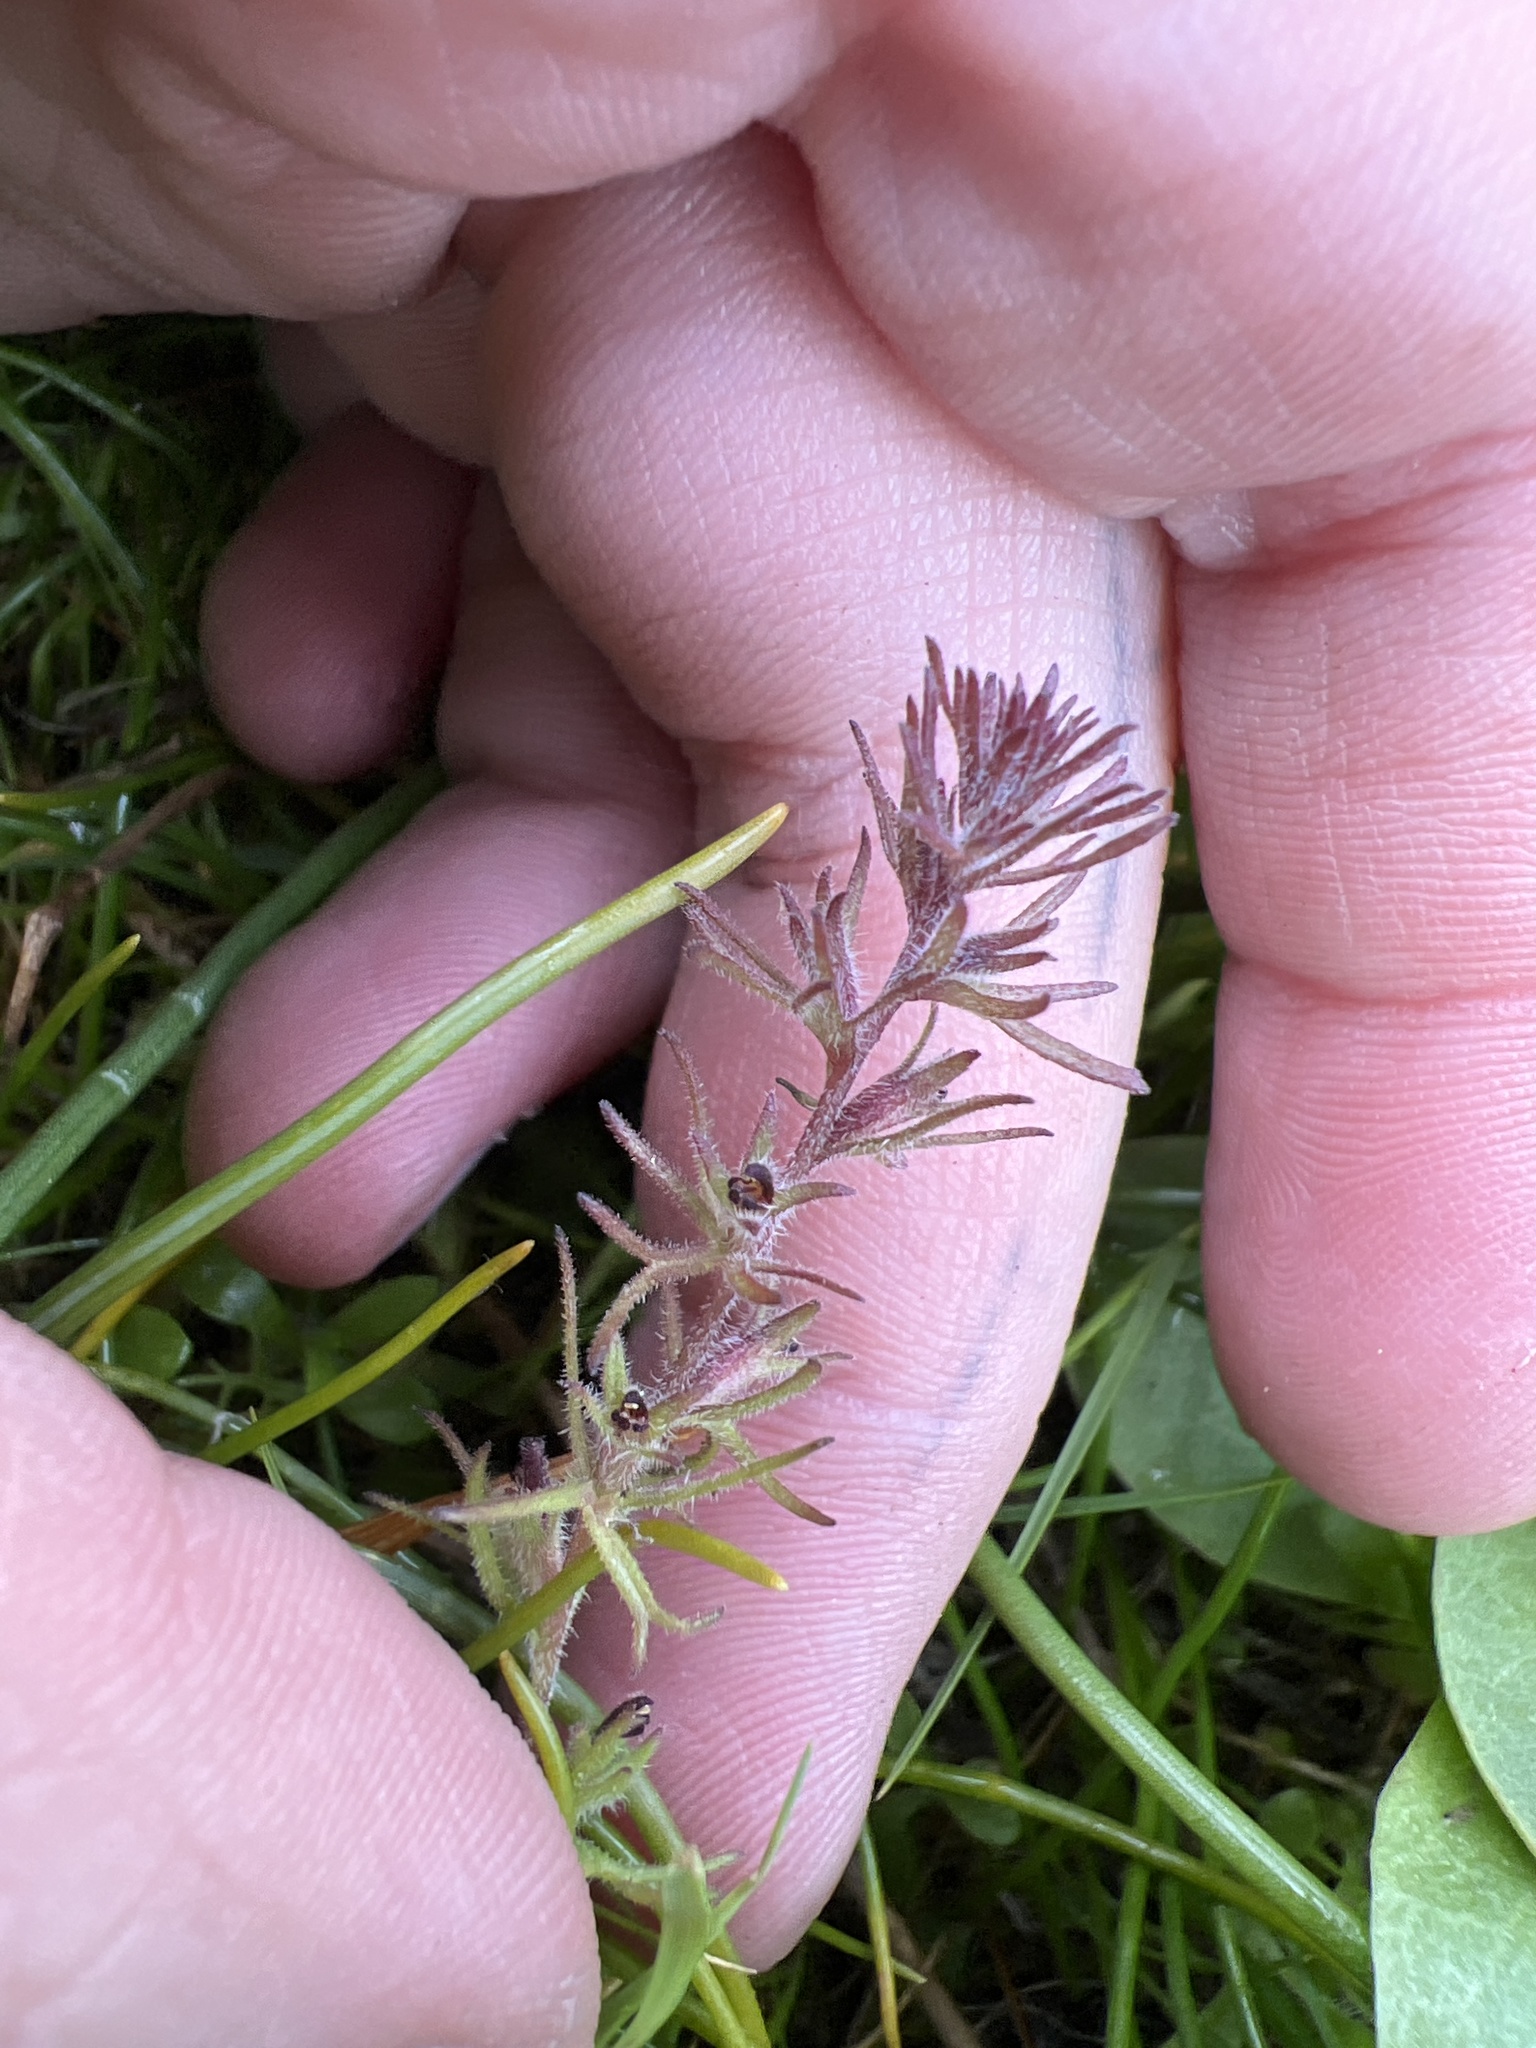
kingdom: Plantae
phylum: Tracheophyta
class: Magnoliopsida
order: Lamiales
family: Orobanchaceae
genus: Triphysaria
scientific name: Triphysaria pusilla
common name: Dwarf false owl-clover
